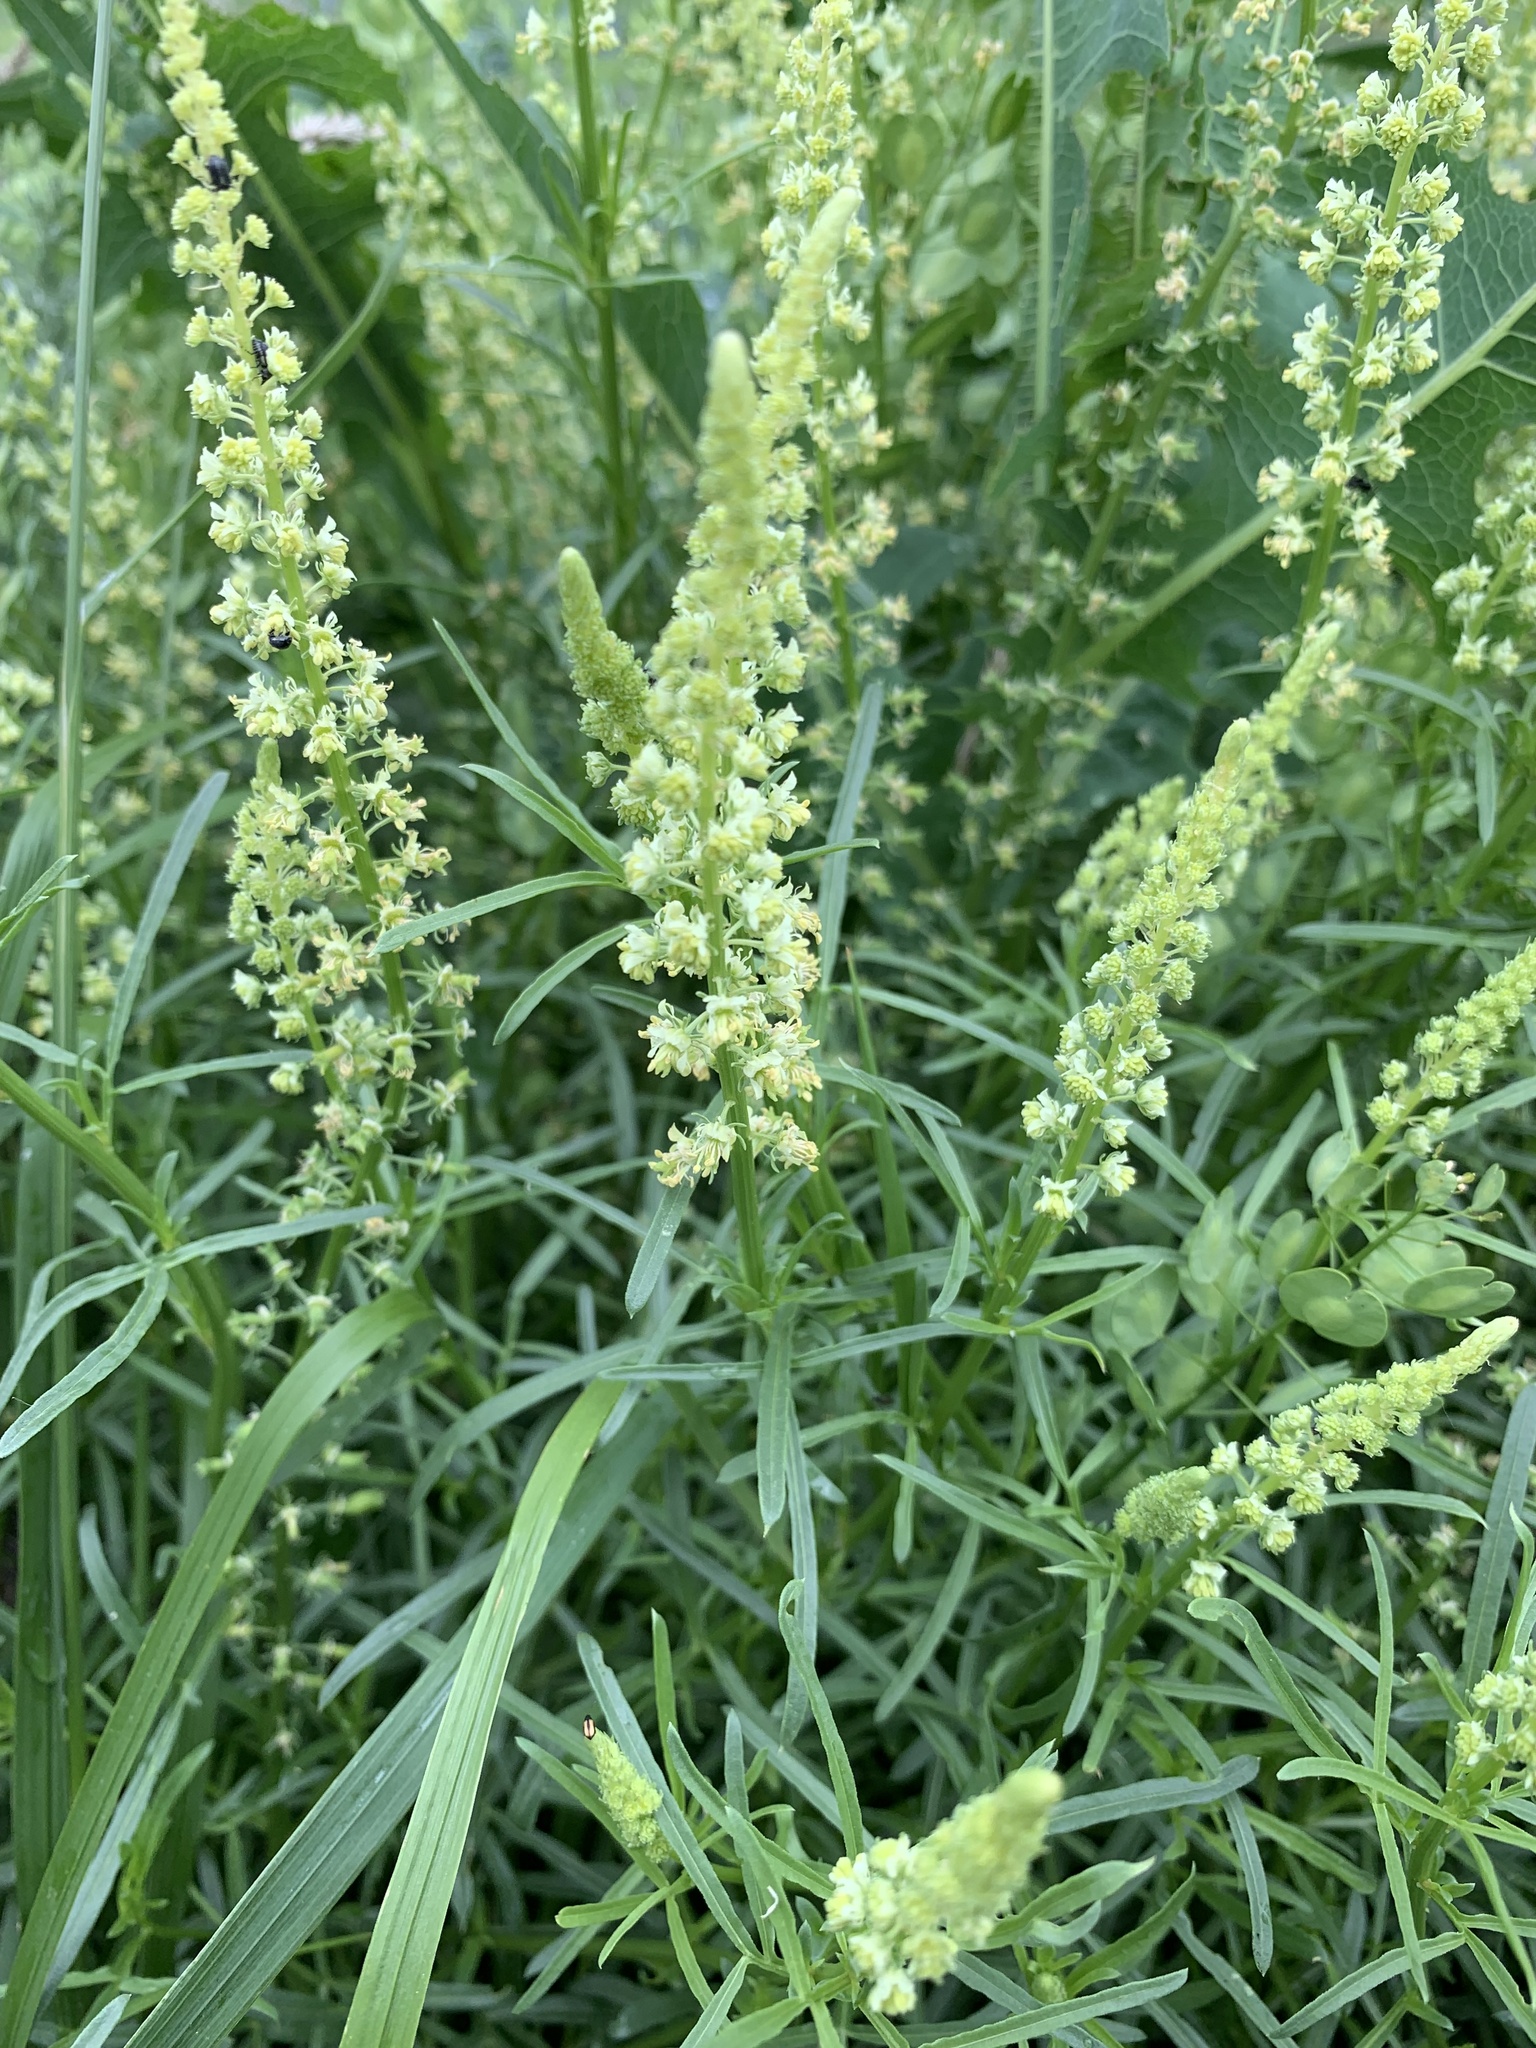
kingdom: Plantae
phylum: Tracheophyta
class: Magnoliopsida
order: Brassicales
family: Resedaceae
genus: Reseda
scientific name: Reseda lutea
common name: Wild mignonette
